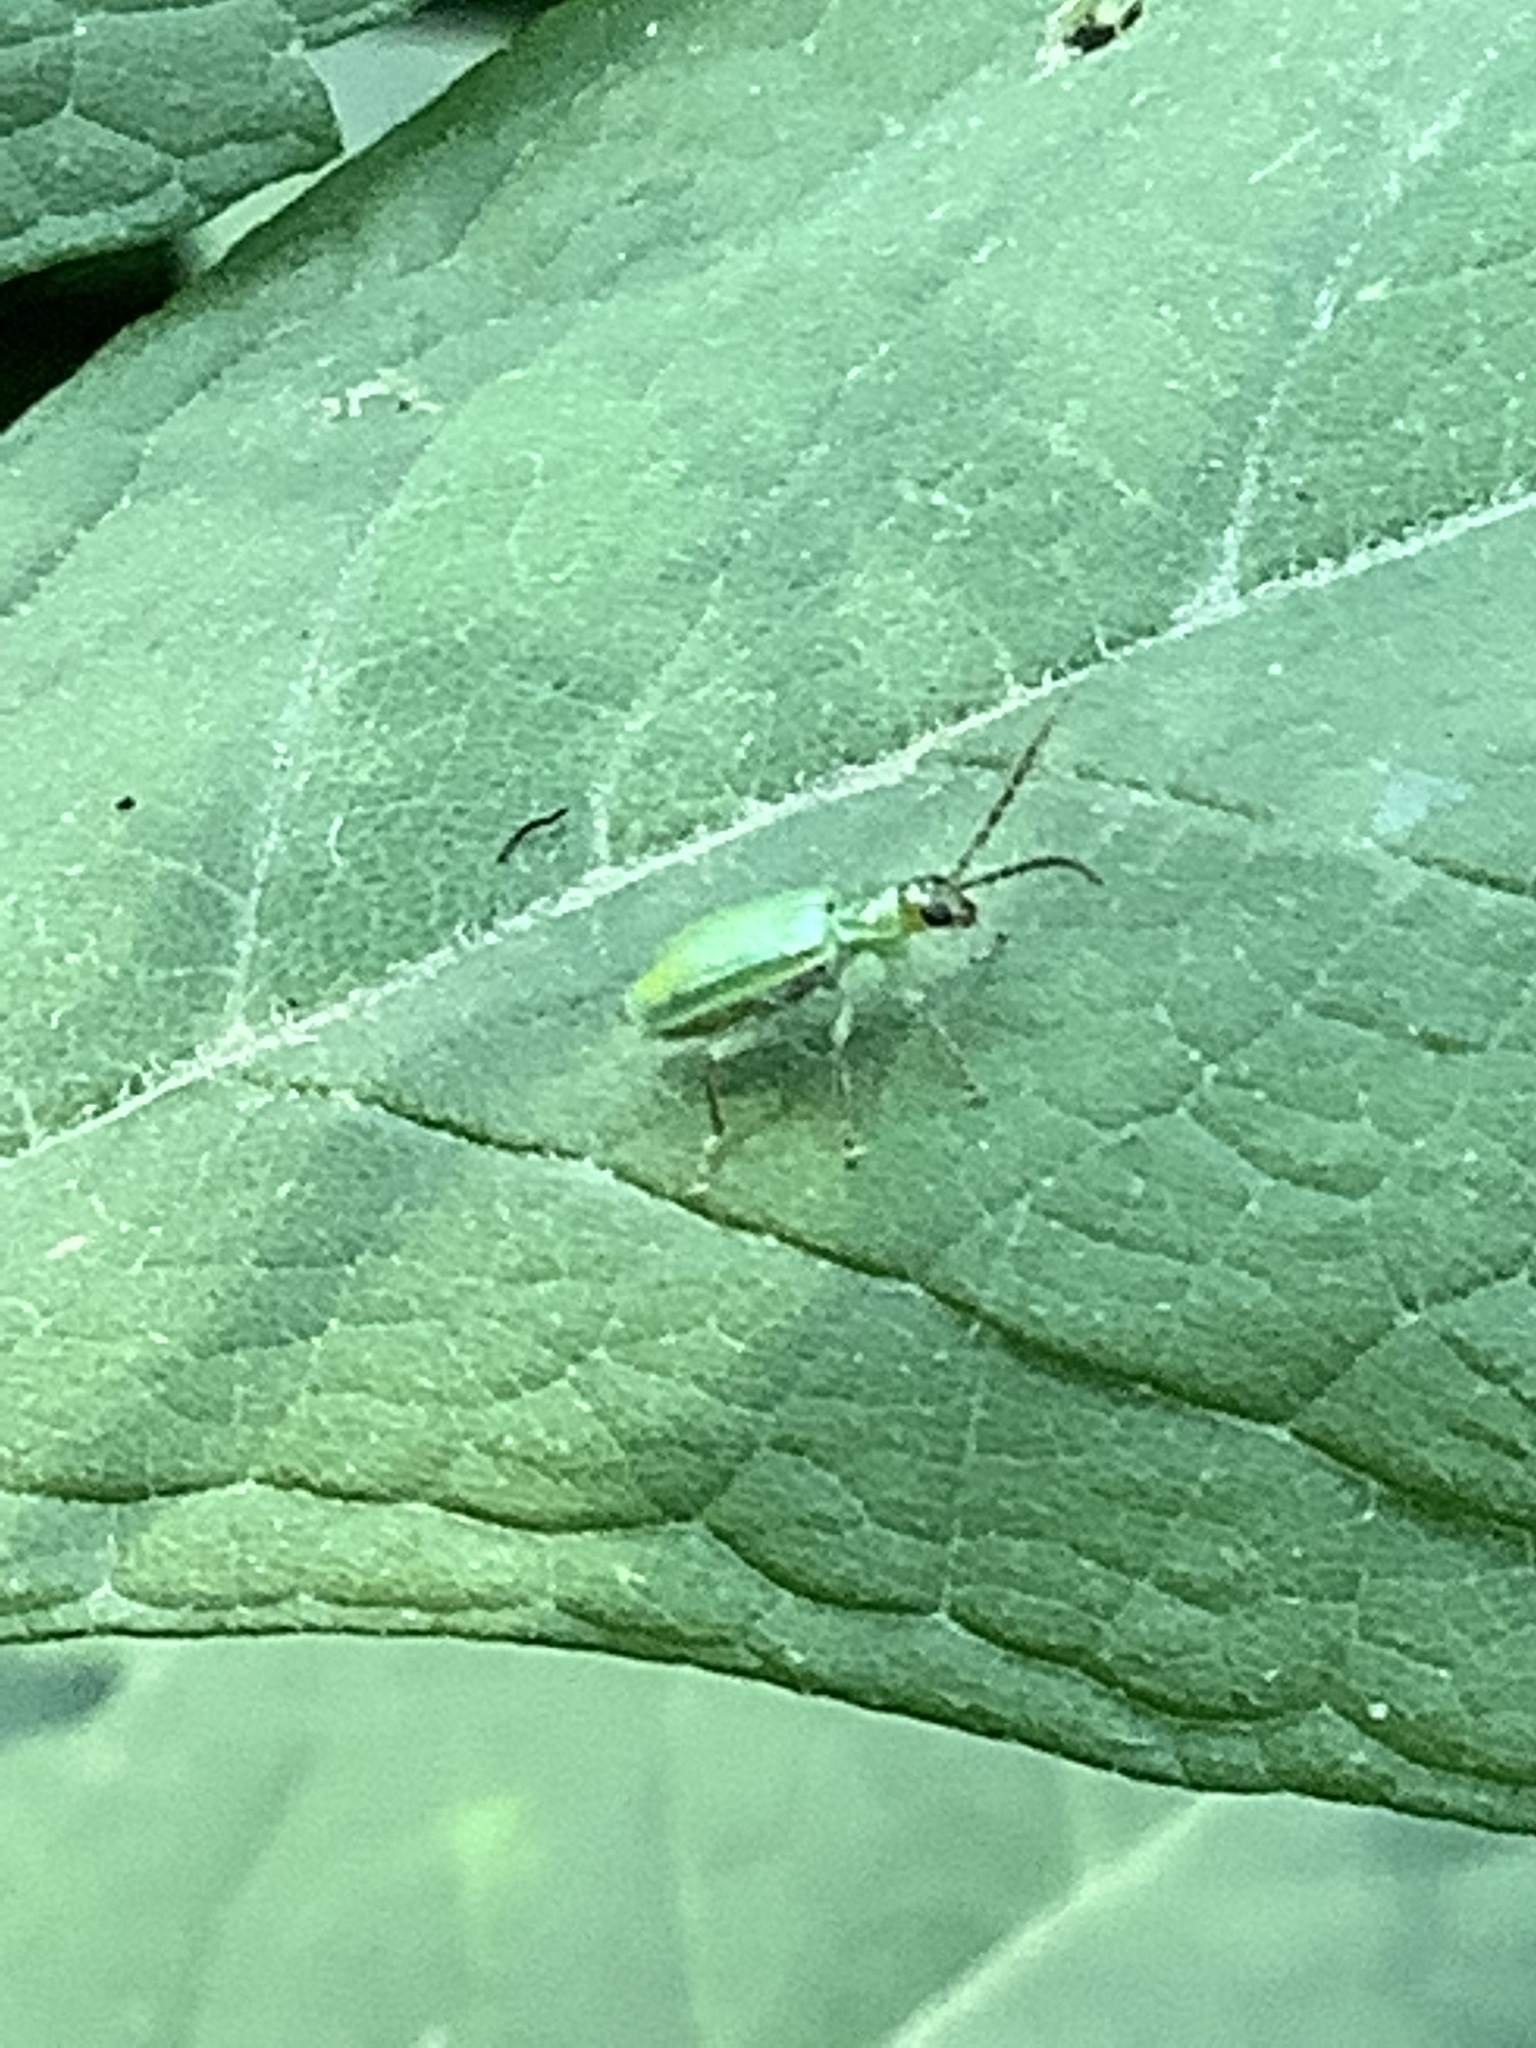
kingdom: Animalia
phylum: Arthropoda
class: Insecta
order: Coleoptera
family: Chrysomelidae
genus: Diabrotica
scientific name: Diabrotica barberi
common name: Northern corn rootworm
